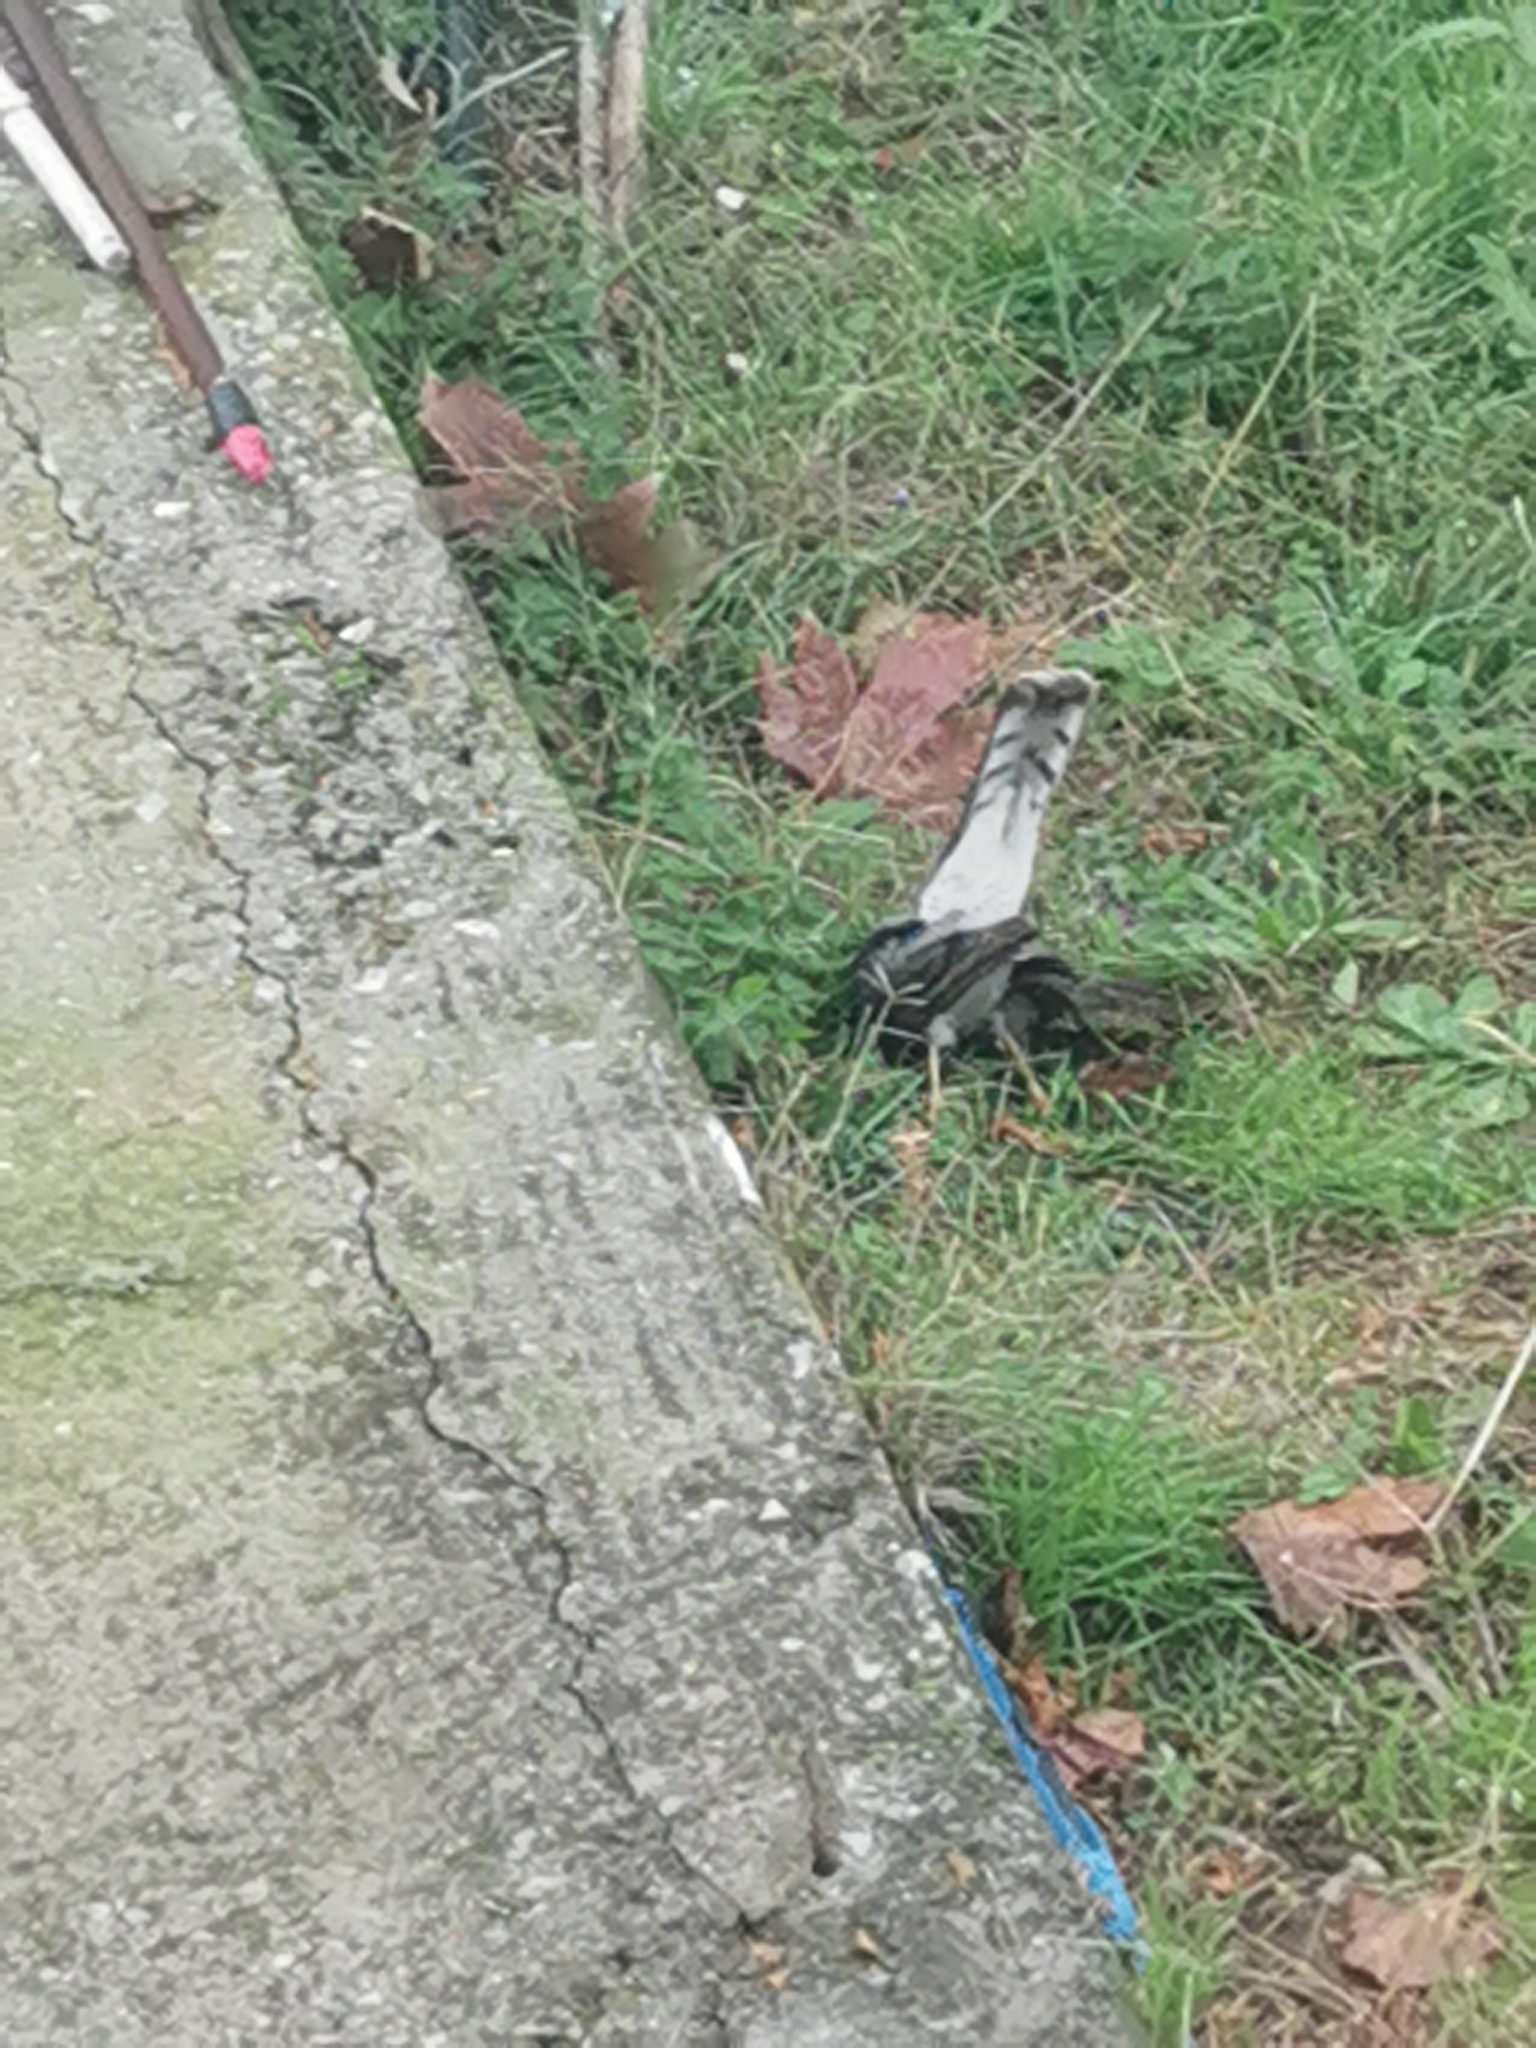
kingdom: Animalia
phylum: Chordata
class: Aves
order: Accipitriformes
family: Accipitridae
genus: Accipiter
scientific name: Accipiter nisus
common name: Eurasian sparrowhawk
